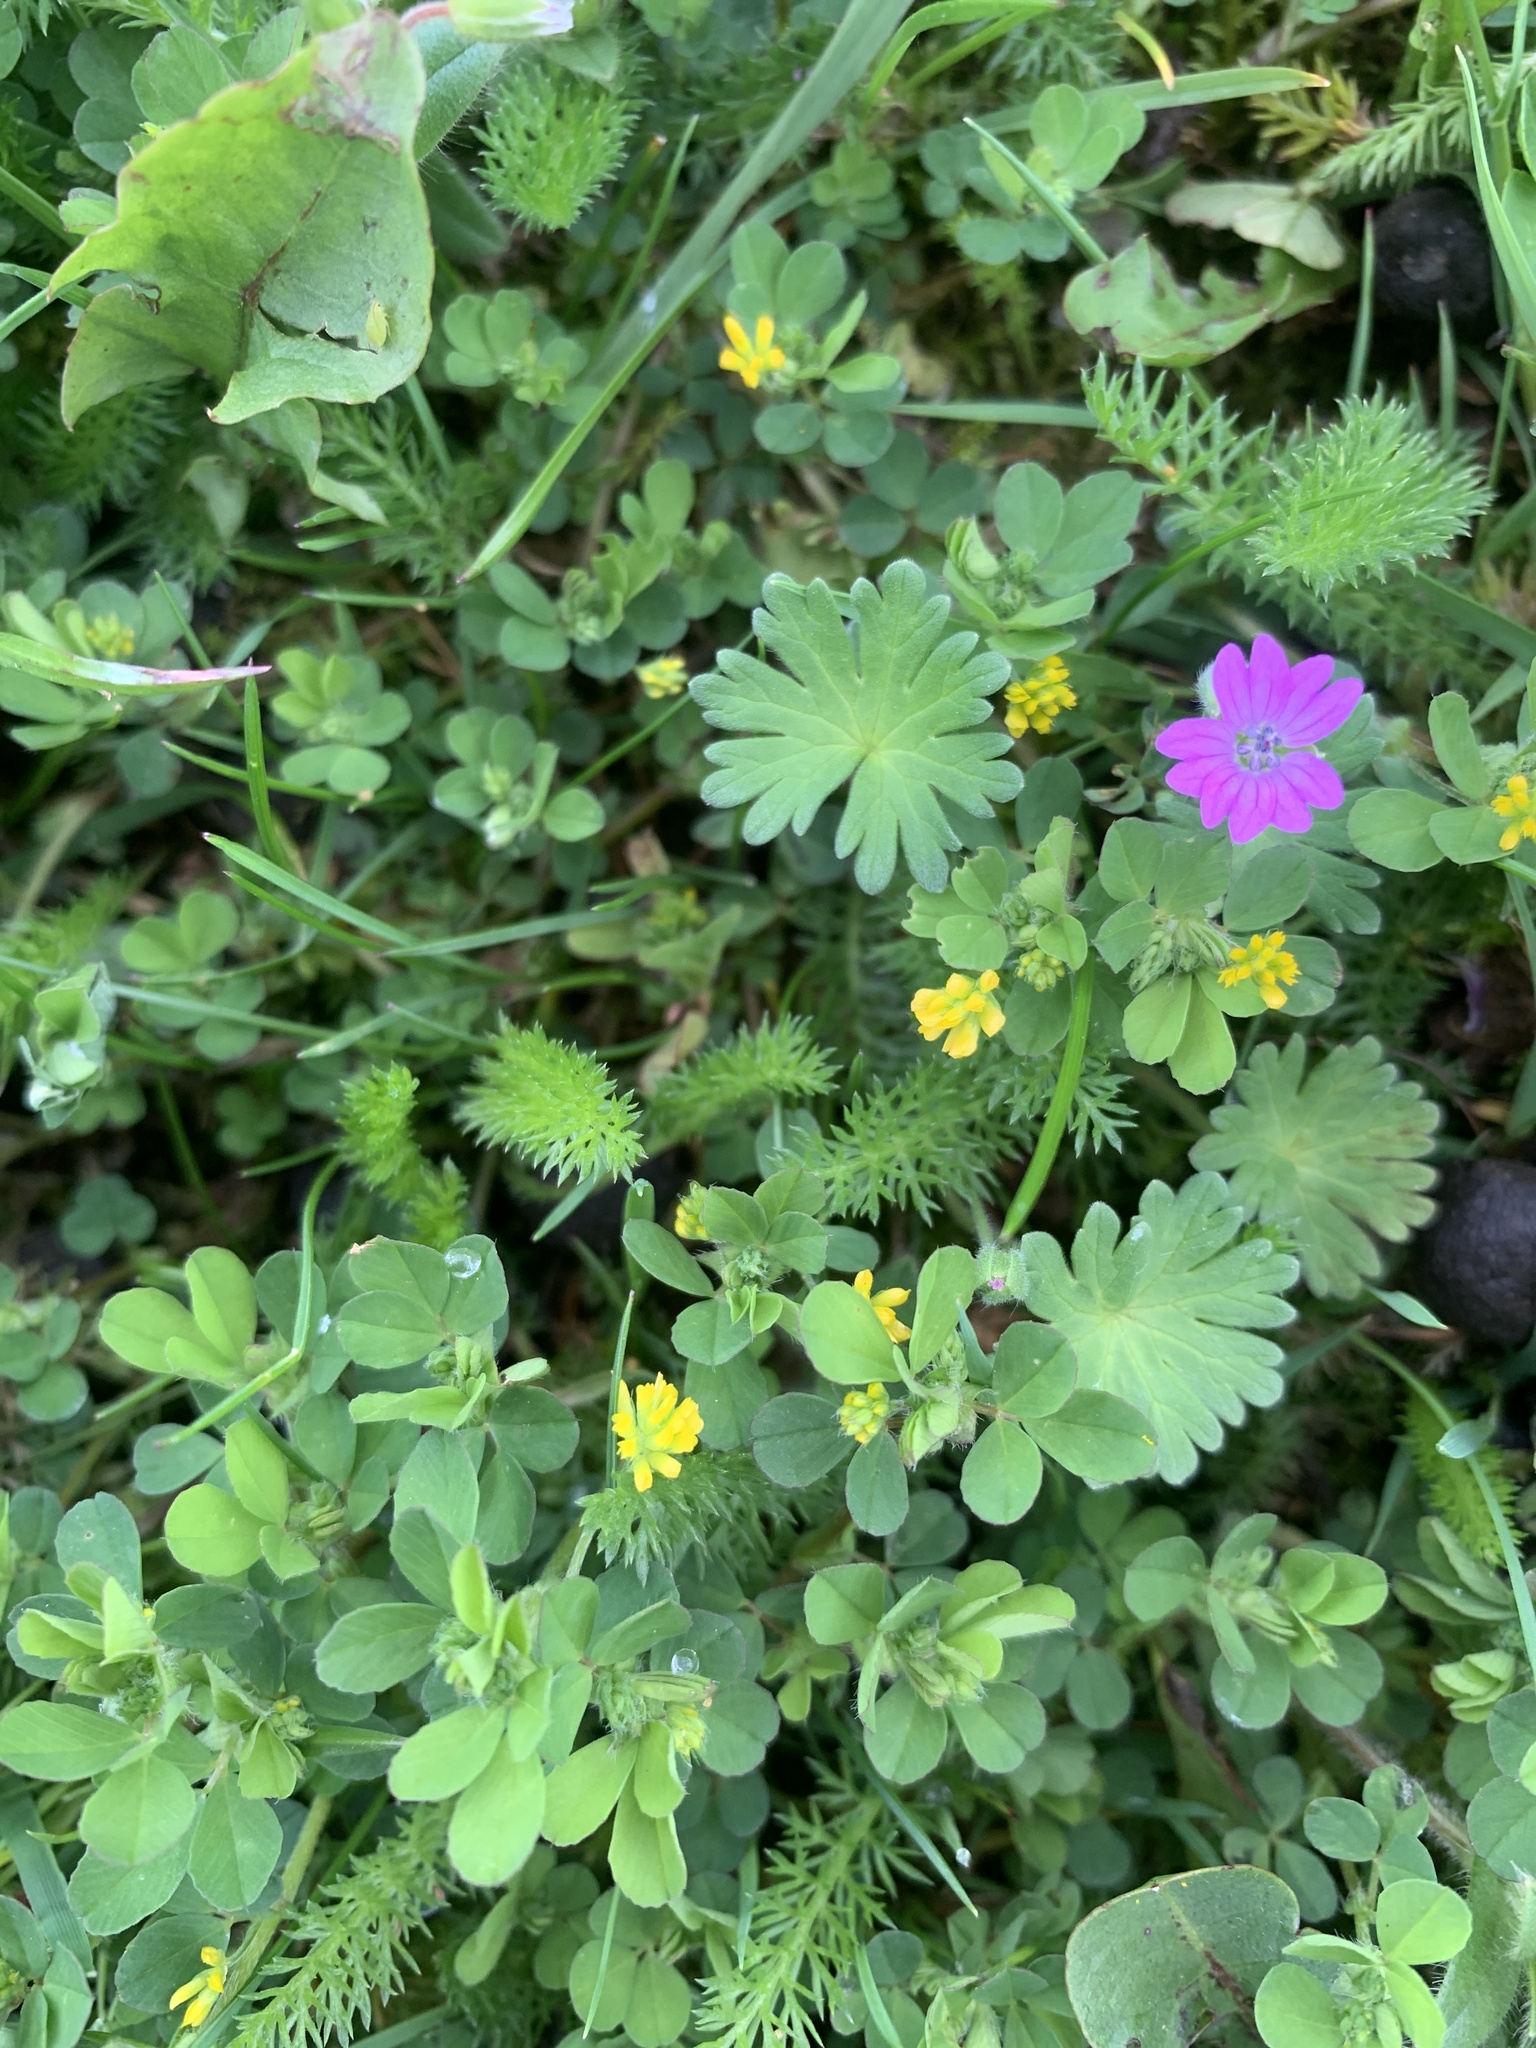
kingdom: Plantae
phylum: Tracheophyta
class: Magnoliopsida
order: Geraniales
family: Geraniaceae
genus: Geranium
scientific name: Geranium molle
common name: Dove's-foot crane's-bill
